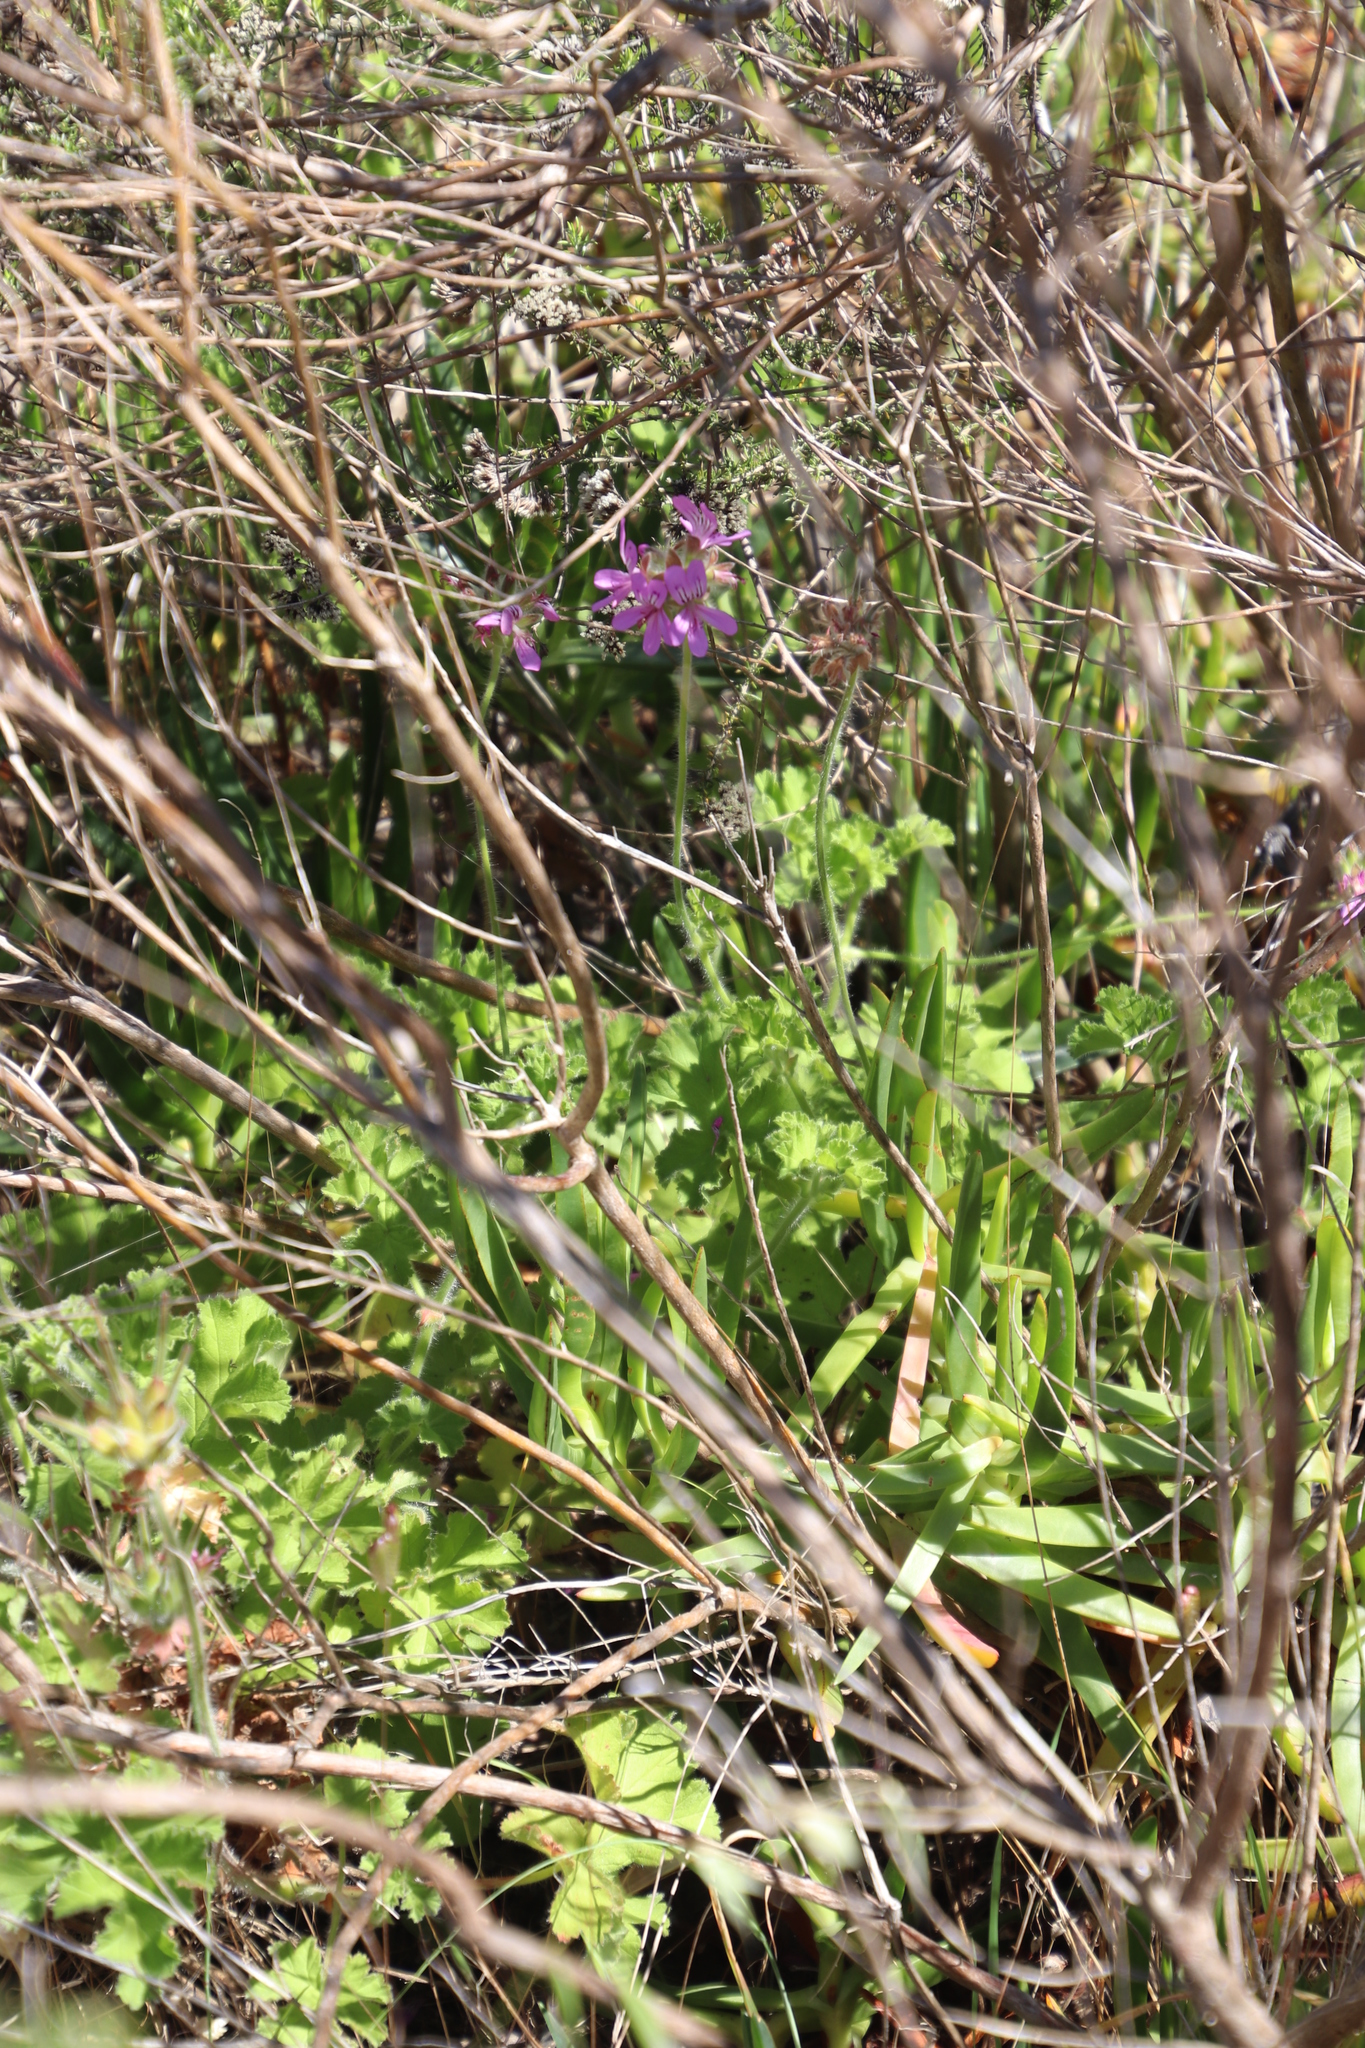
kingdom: Plantae
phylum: Tracheophyta
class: Magnoliopsida
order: Geraniales
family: Geraniaceae
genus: Pelargonium
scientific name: Pelargonium capitatum
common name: Rose scented geranium
